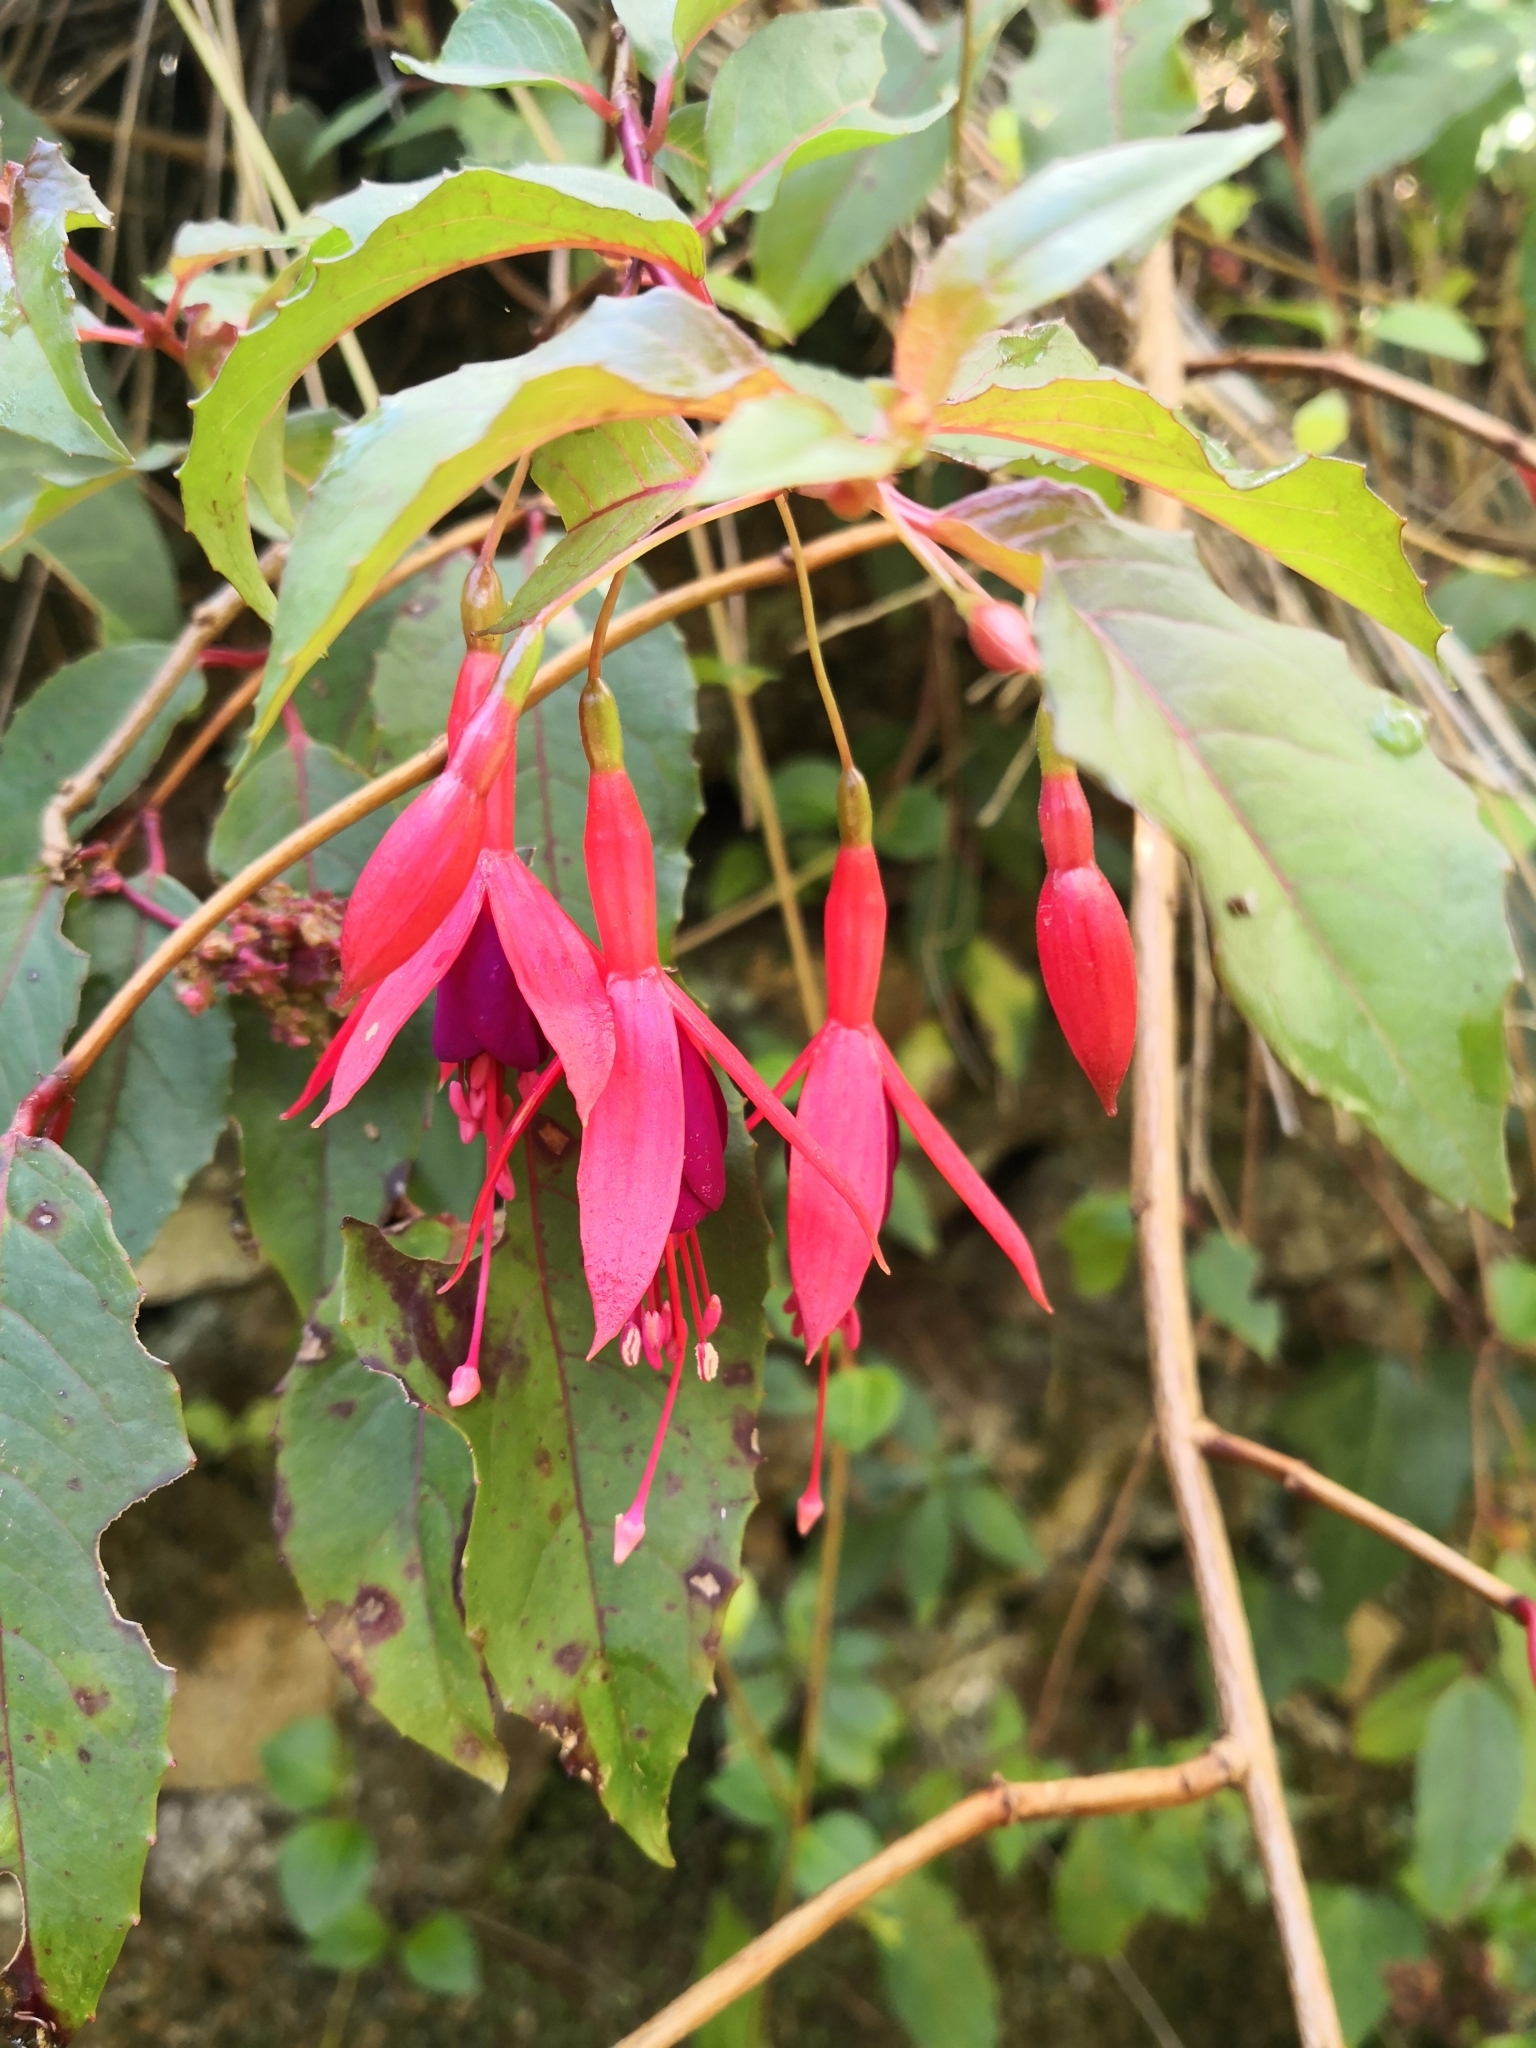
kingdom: Plantae
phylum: Tracheophyta
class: Magnoliopsida
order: Myrtales
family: Onagraceae
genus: Fuchsia
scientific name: Fuchsia magellanica
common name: Hardy fuchsia
